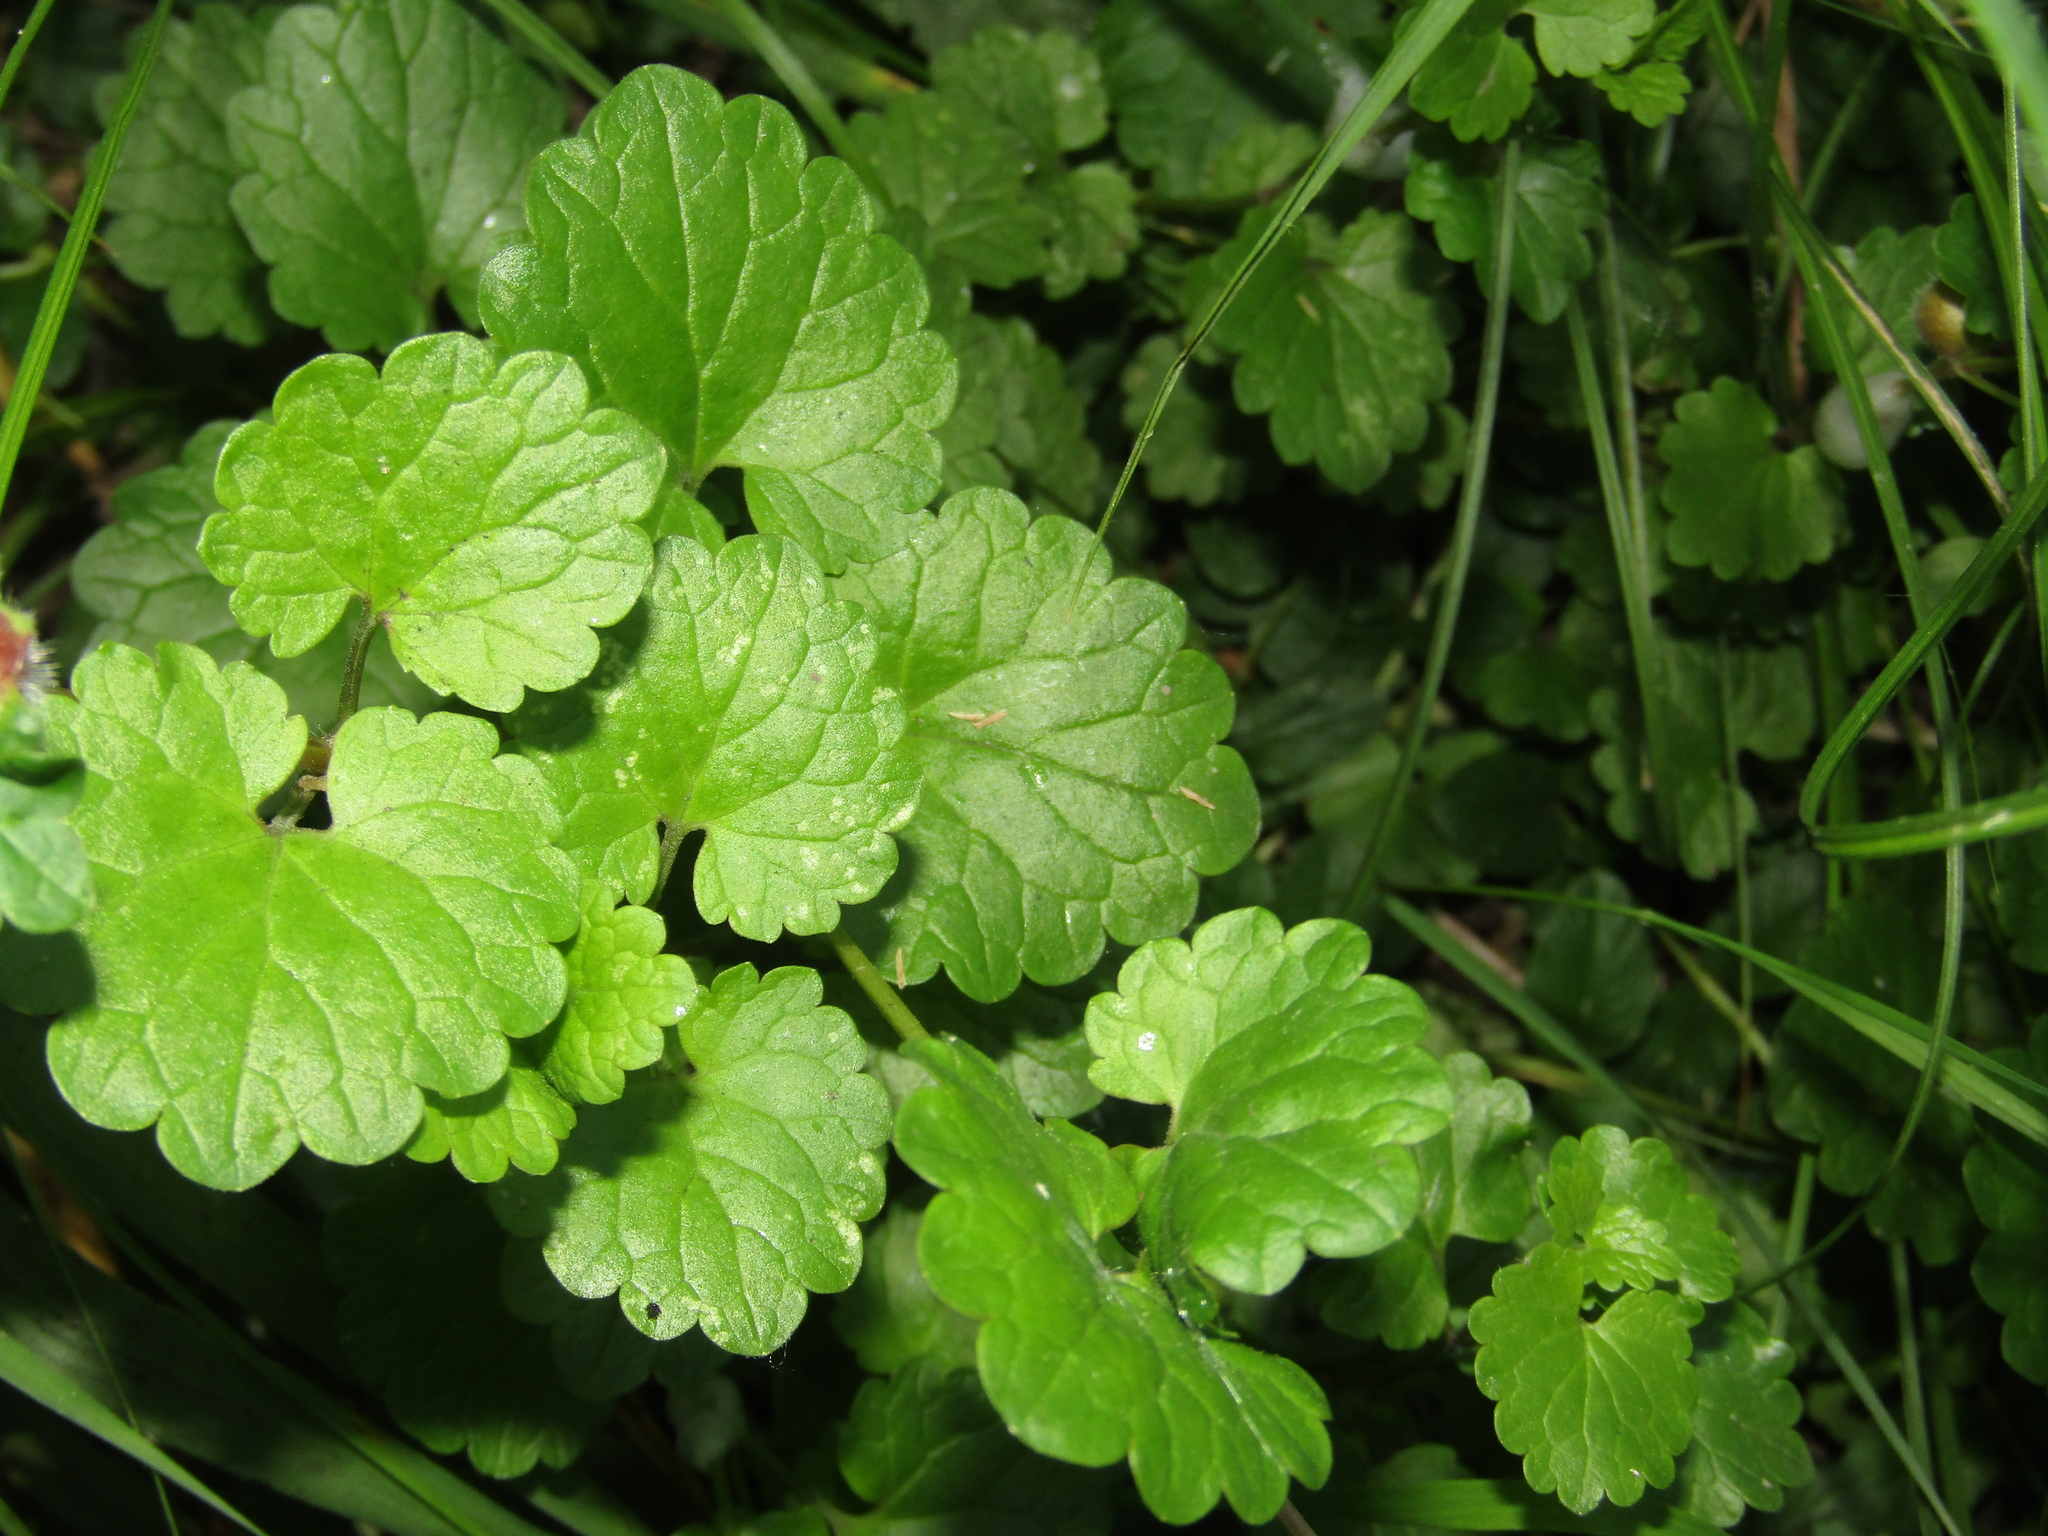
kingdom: Plantae
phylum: Tracheophyta
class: Magnoliopsida
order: Lamiales
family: Lamiaceae
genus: Glechoma
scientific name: Glechoma hederacea
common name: Ground ivy
